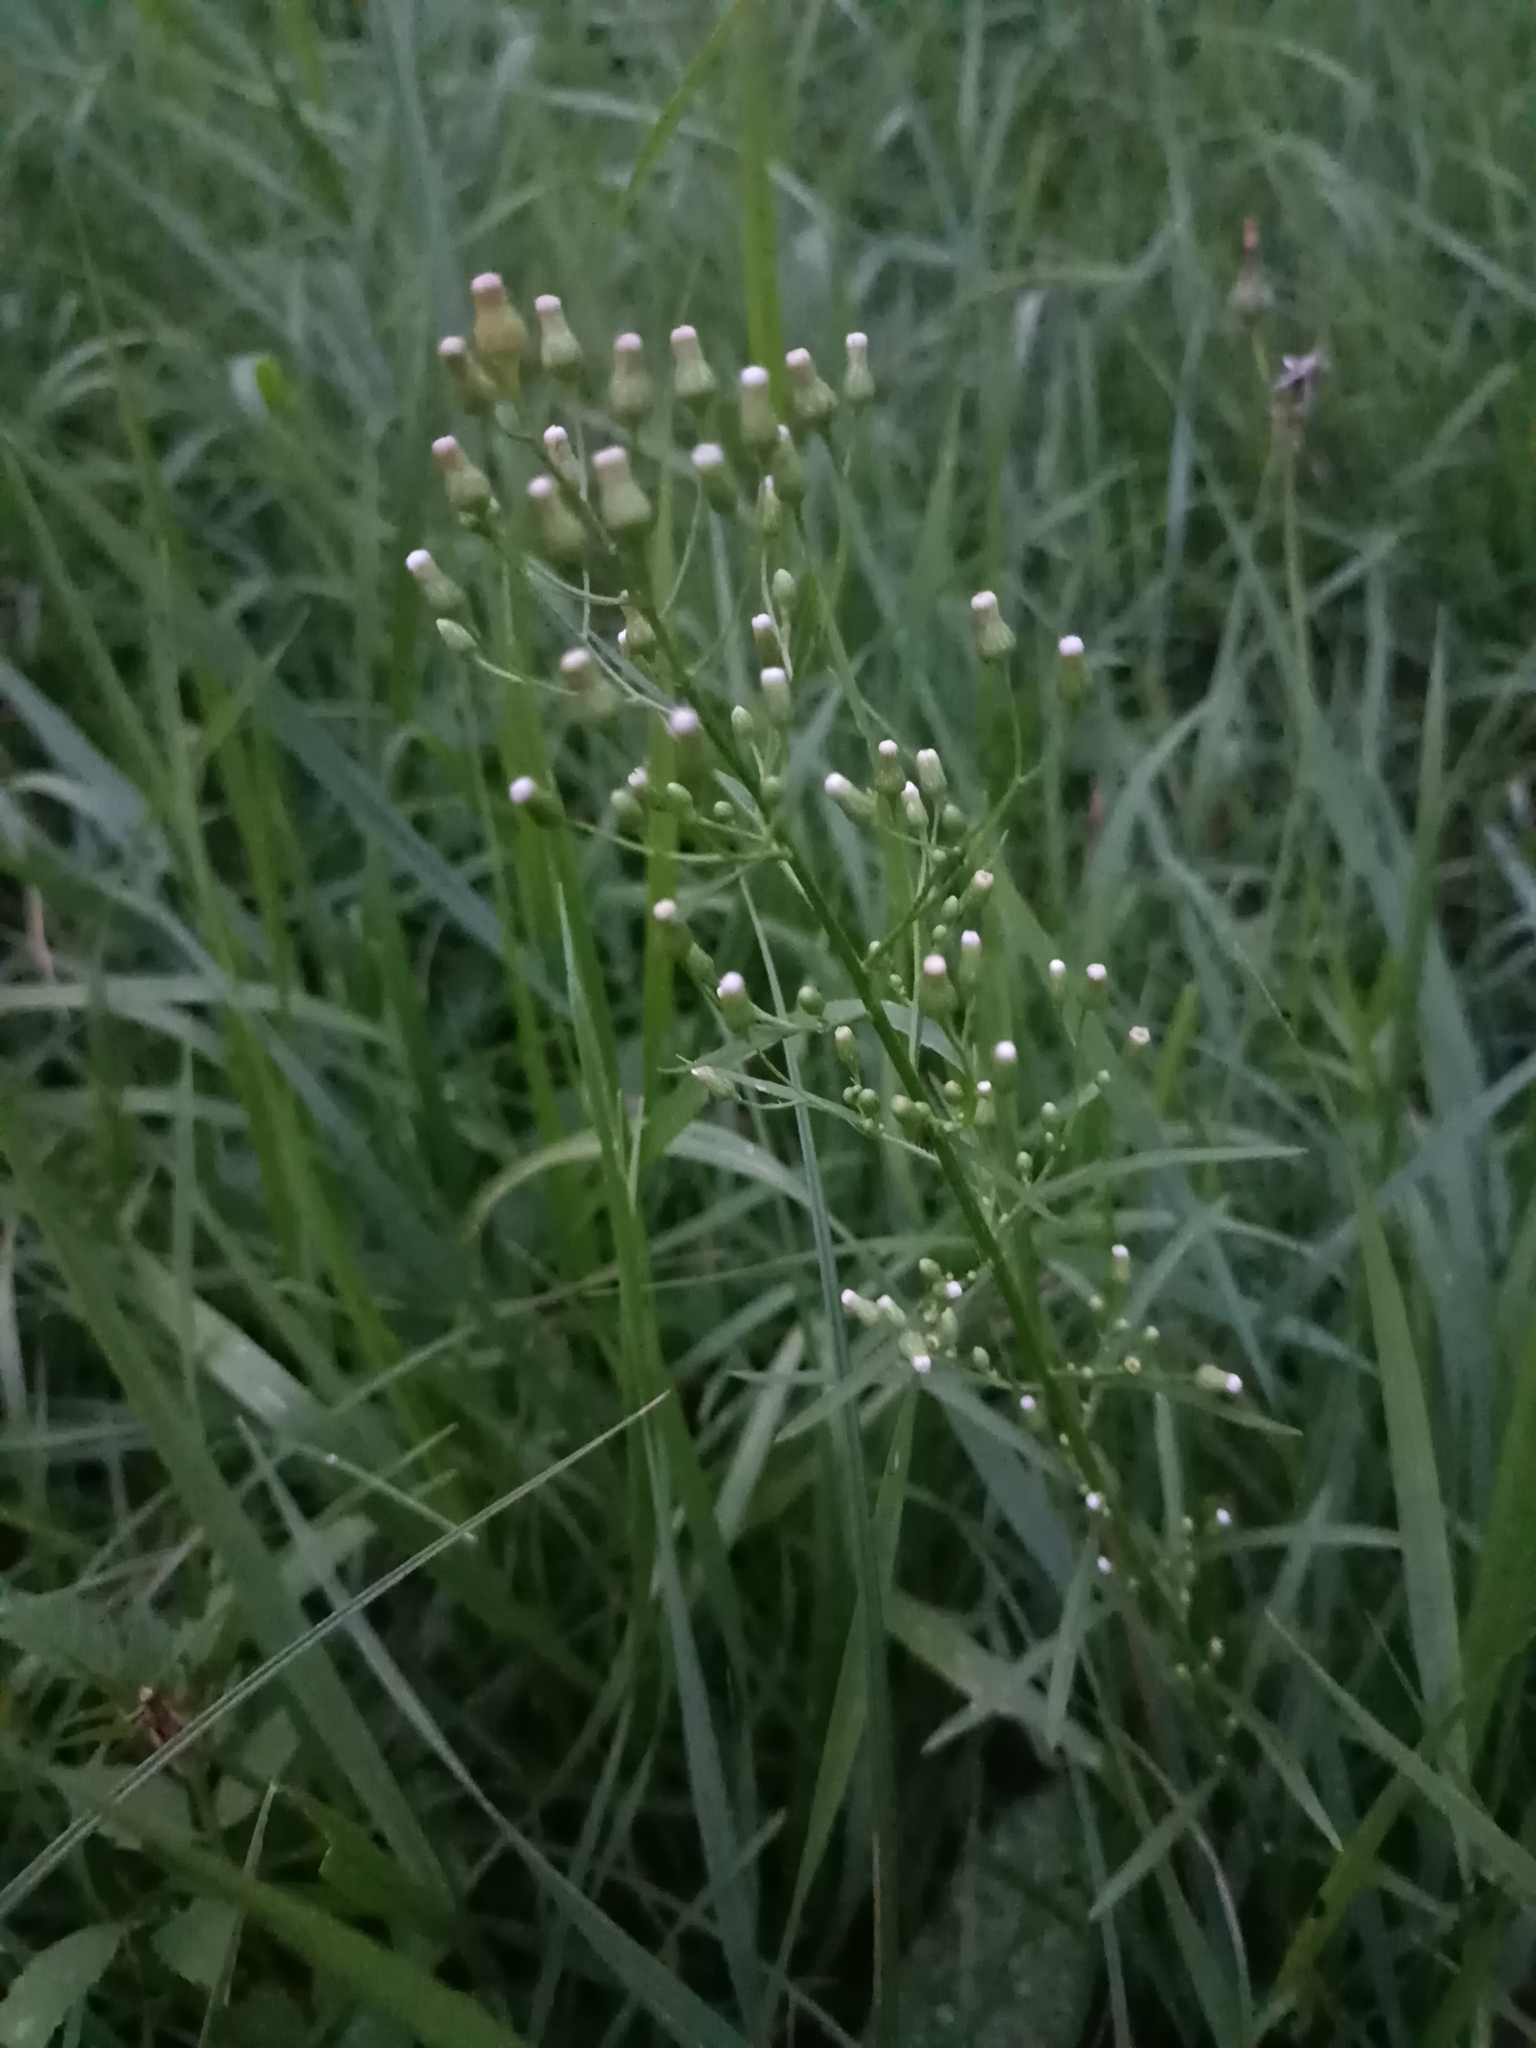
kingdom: Plantae
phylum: Tracheophyta
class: Magnoliopsida
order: Asterales
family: Asteraceae
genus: Erigeron
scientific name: Erigeron canadensis
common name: Canadian fleabane
